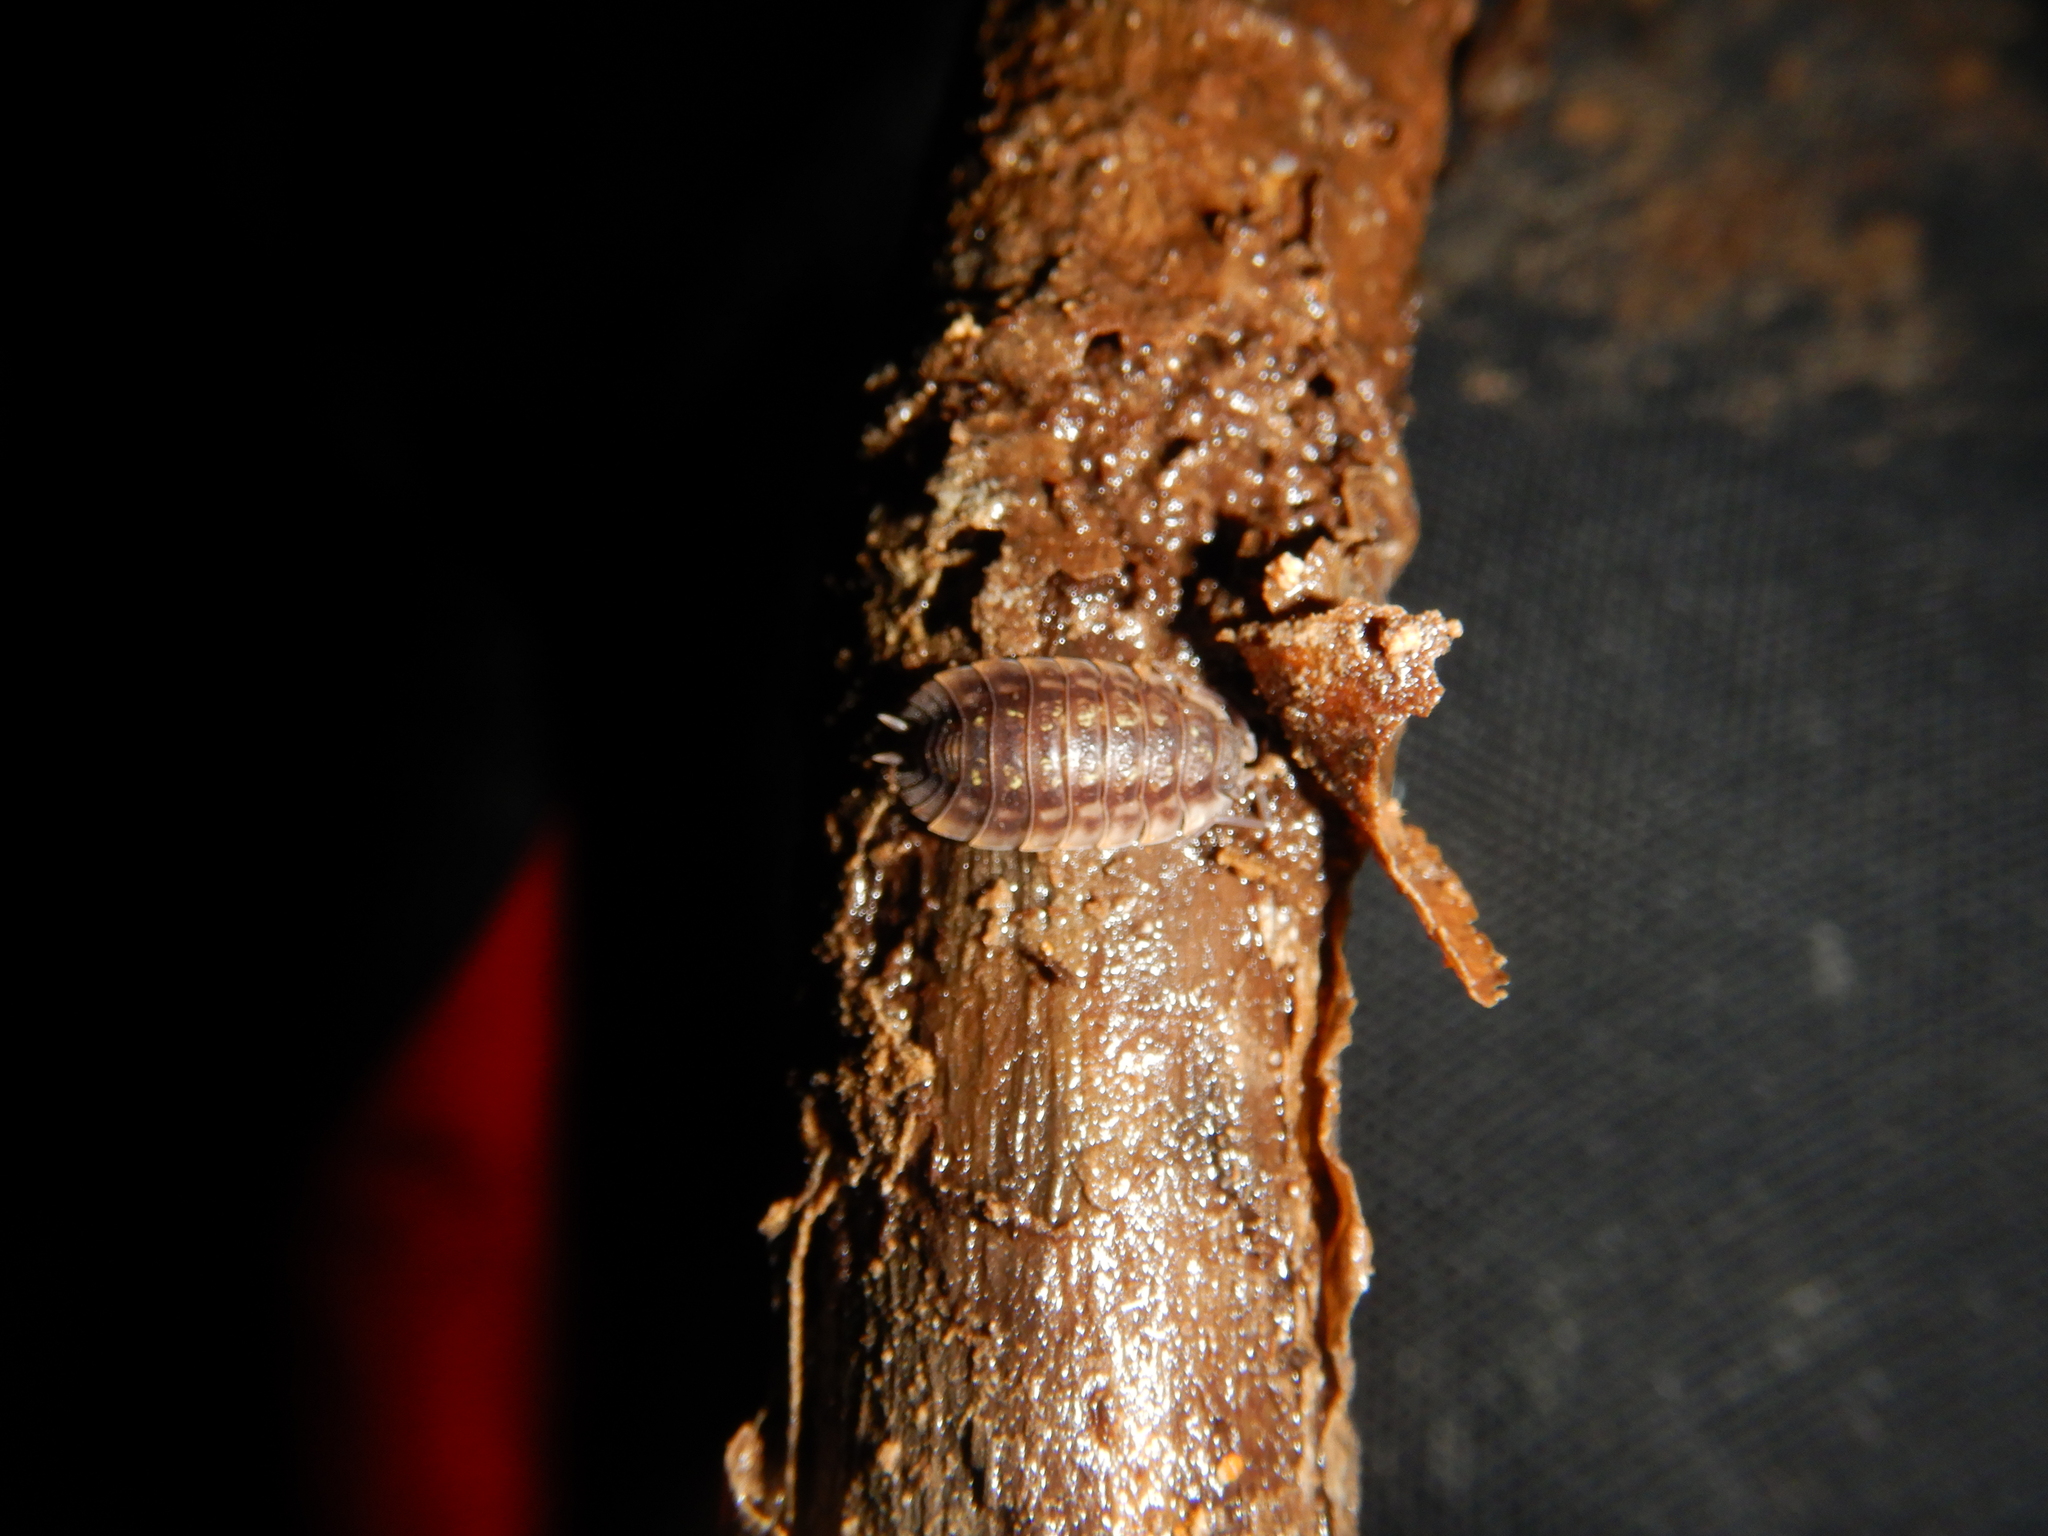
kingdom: Animalia
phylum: Arthropoda
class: Malacostraca
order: Isopoda
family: Oniscidae
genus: Oniscus
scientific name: Oniscus asellus
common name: Common shiny woodlouse
